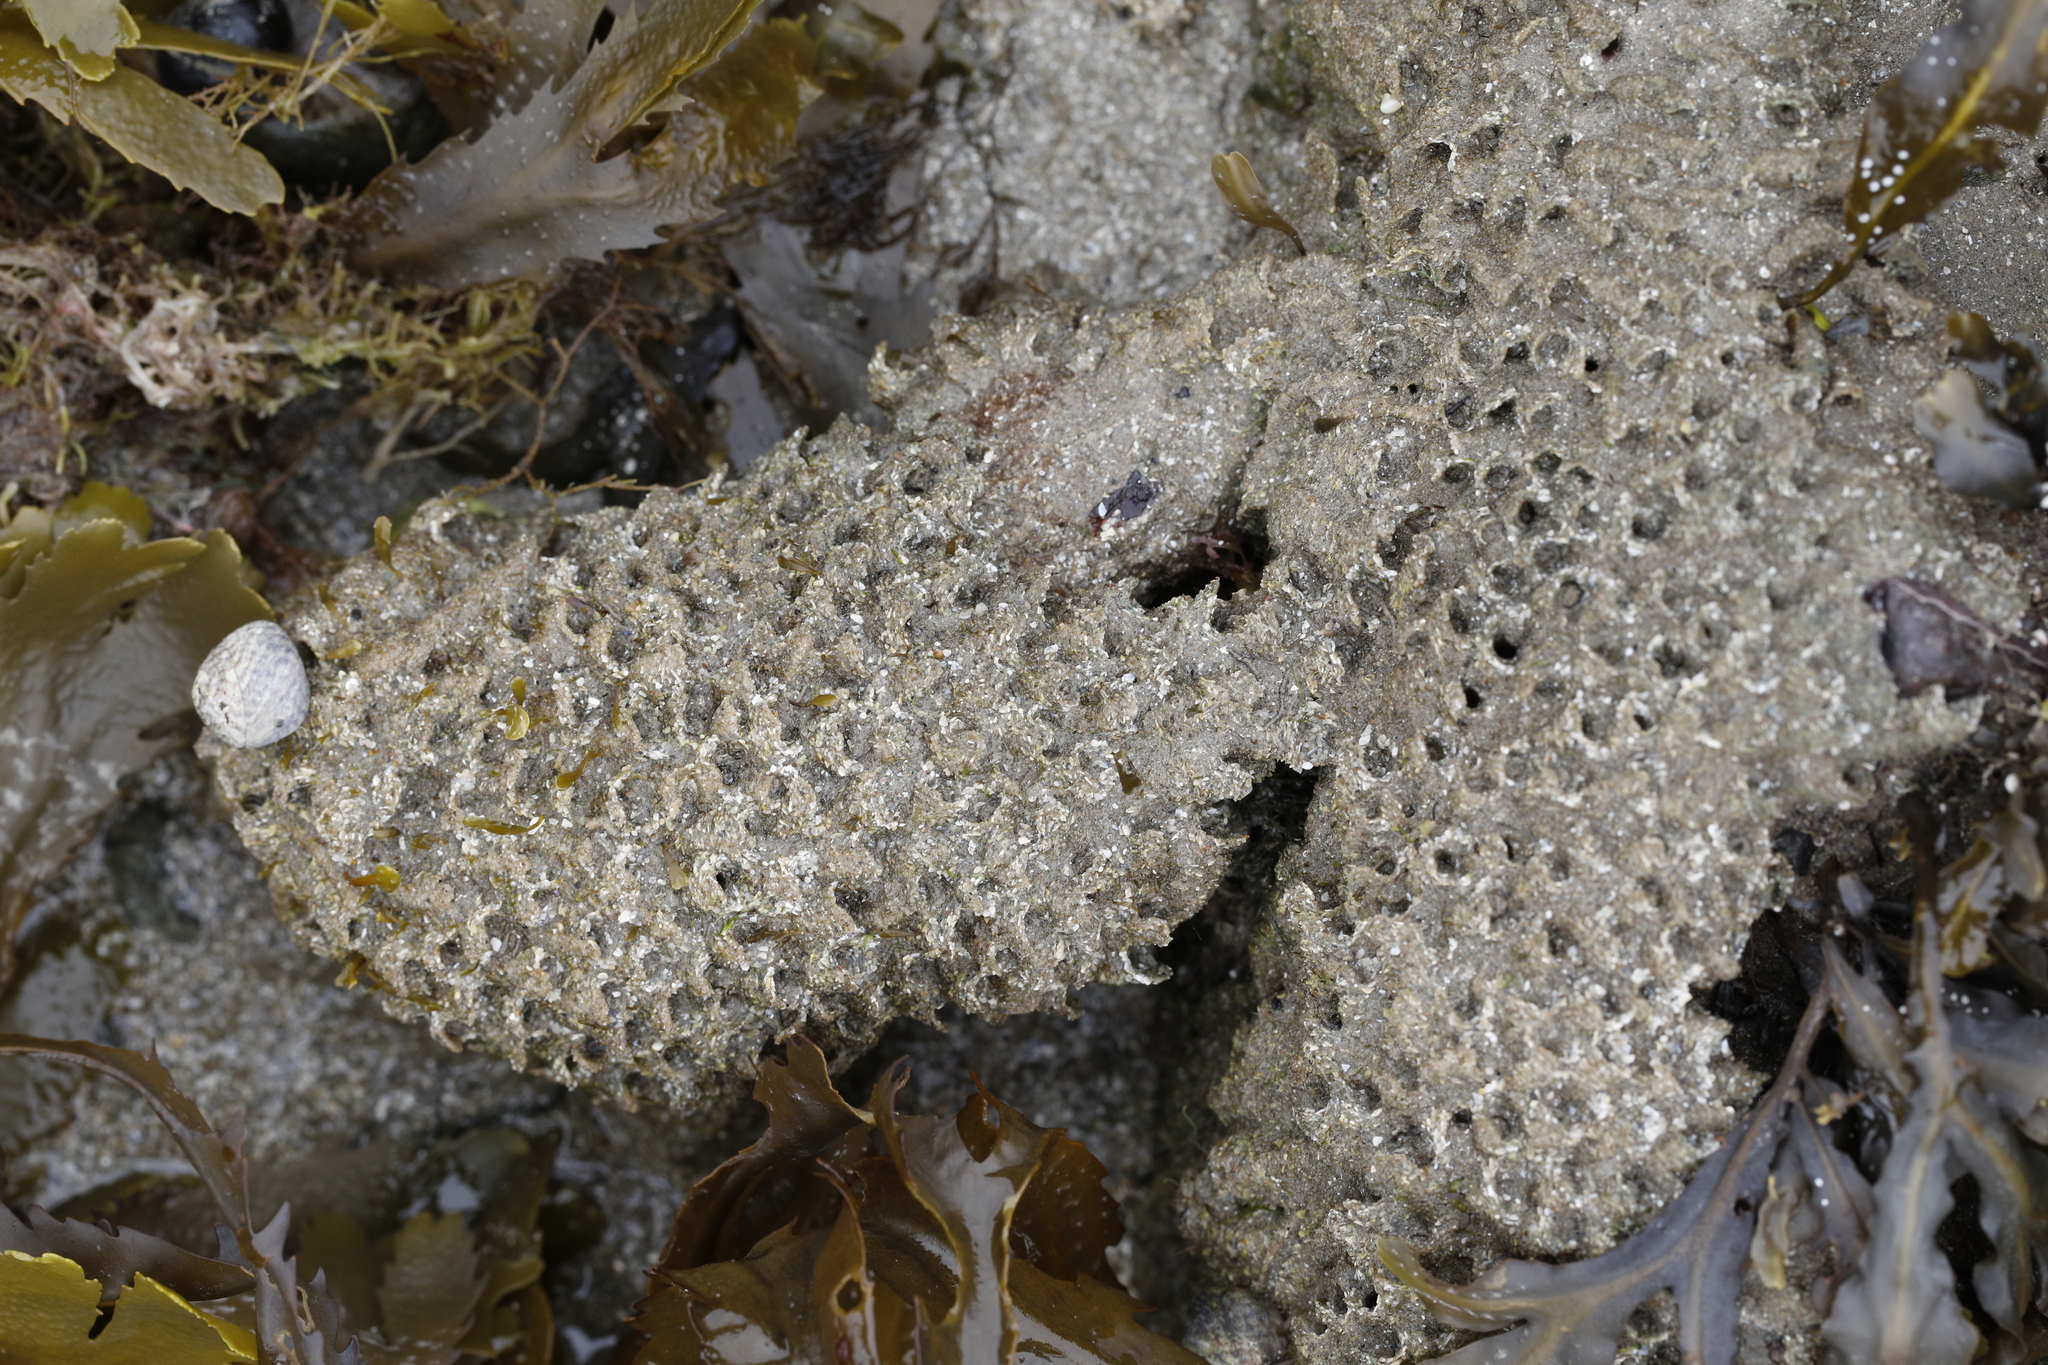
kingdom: Animalia
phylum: Annelida
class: Polychaeta
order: Sabellida
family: Sabellariidae
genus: Sabellaria
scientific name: Sabellaria alveolata
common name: Honeycomb worm
